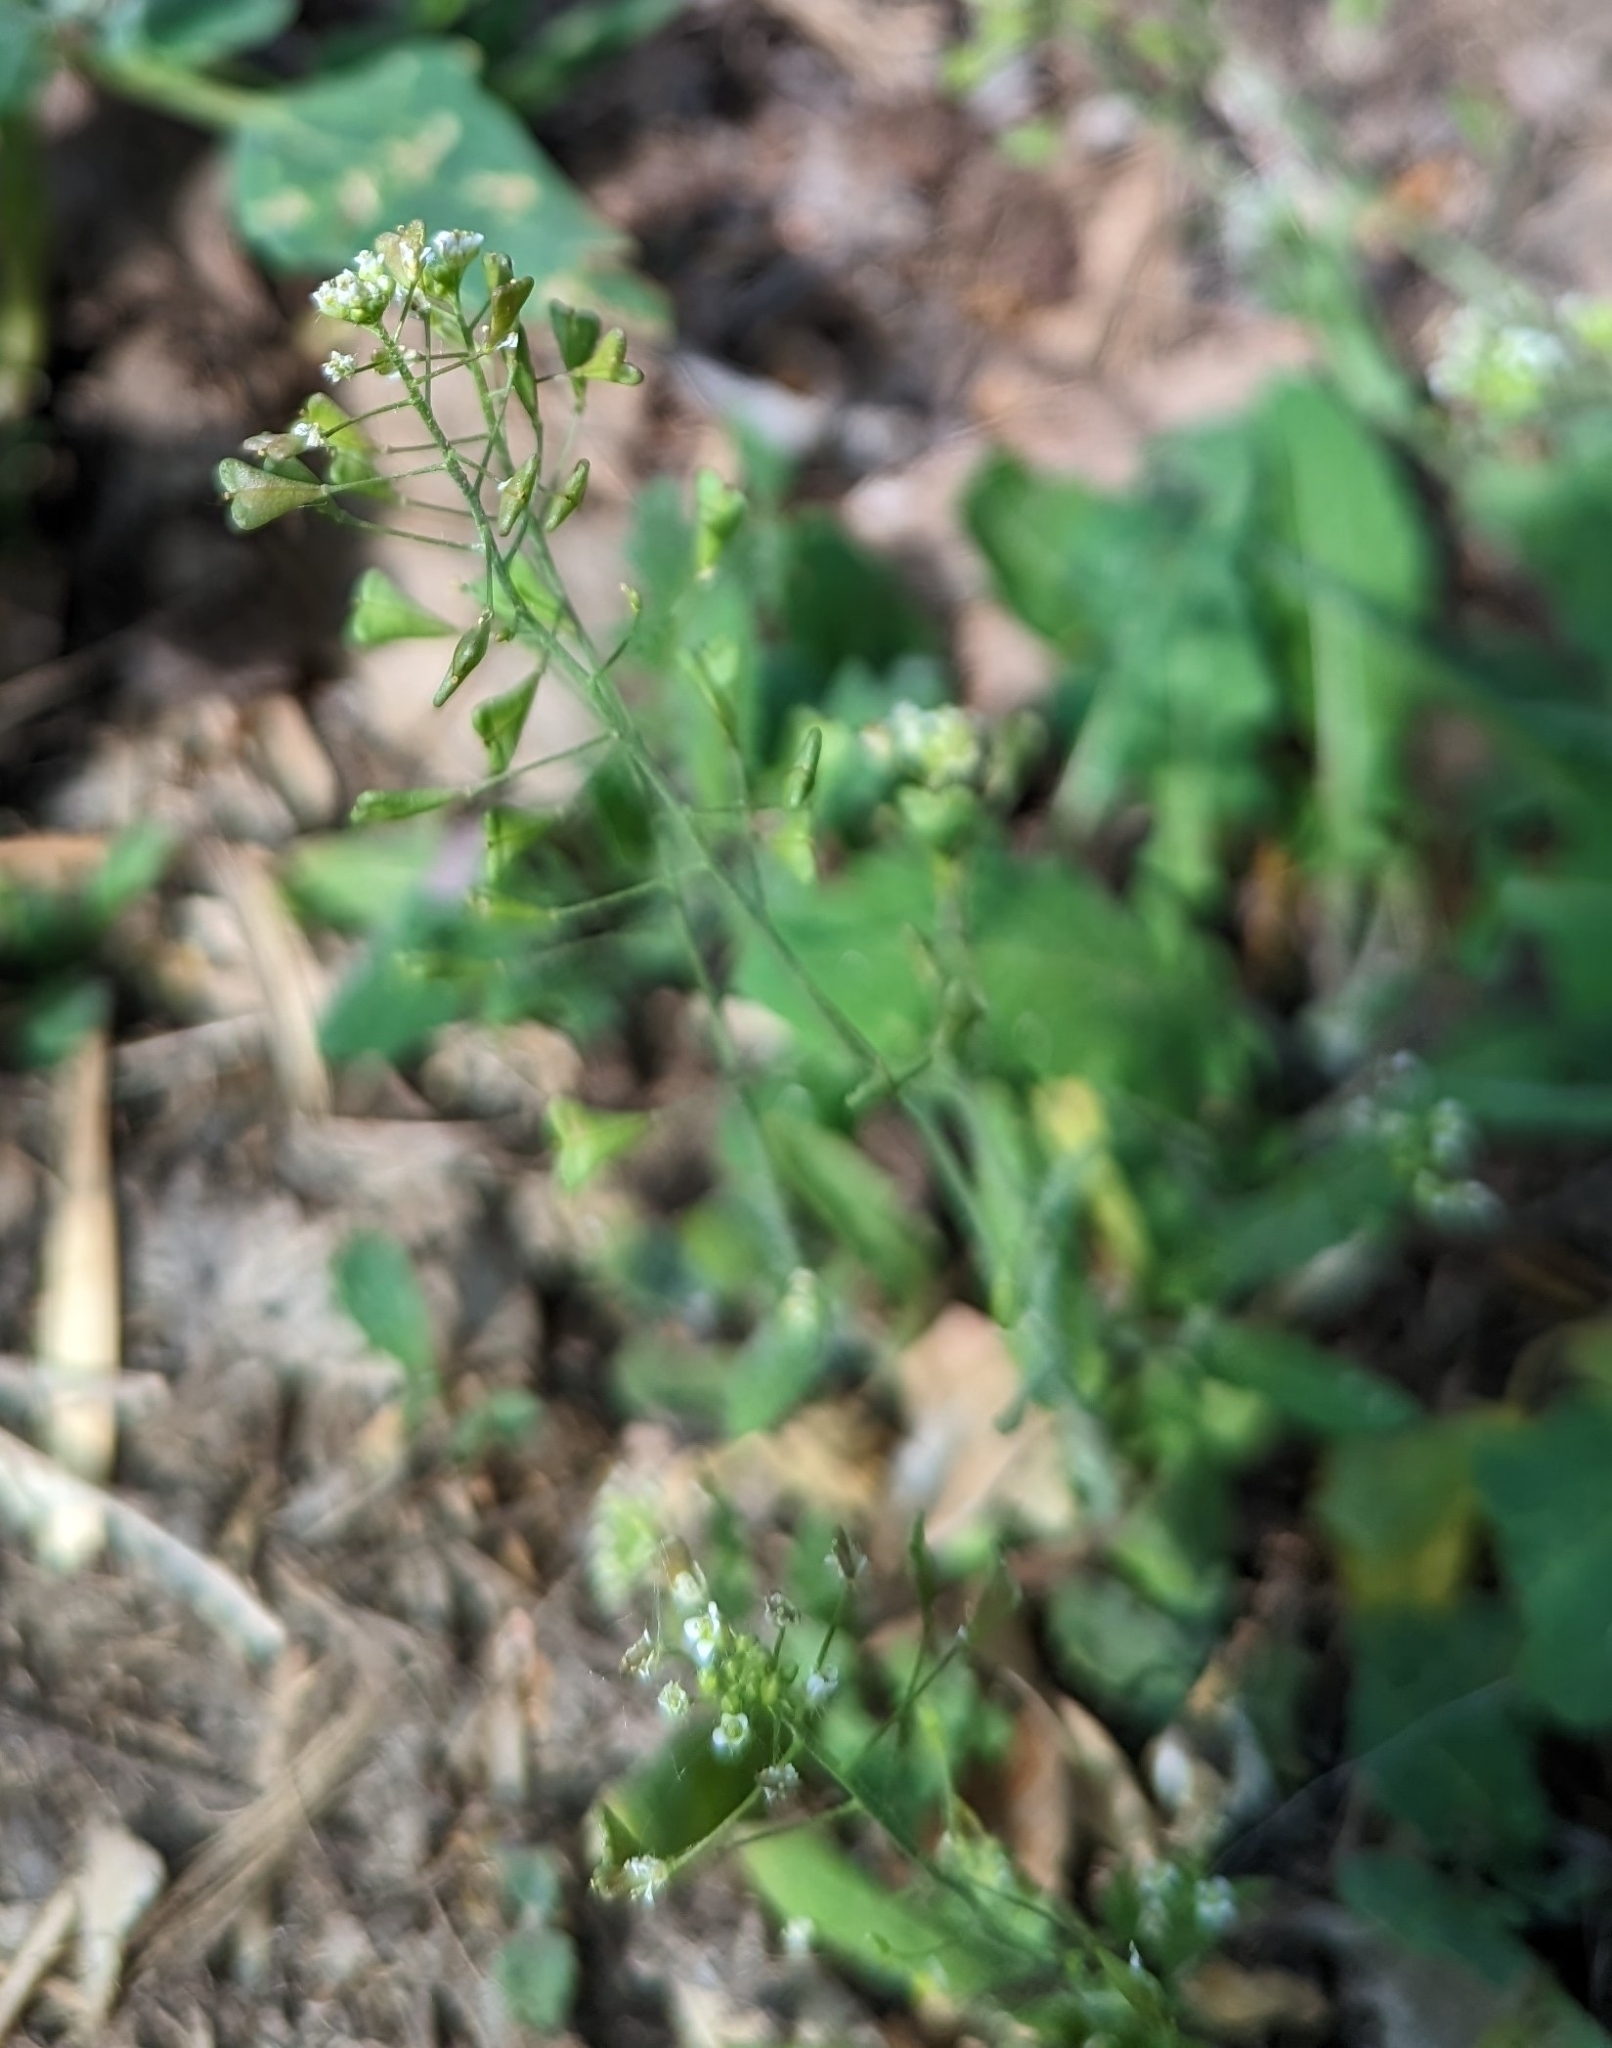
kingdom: Plantae
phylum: Tracheophyta
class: Magnoliopsida
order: Brassicales
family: Brassicaceae
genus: Capsella
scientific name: Capsella bursa-pastoris
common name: Shepherd's purse
